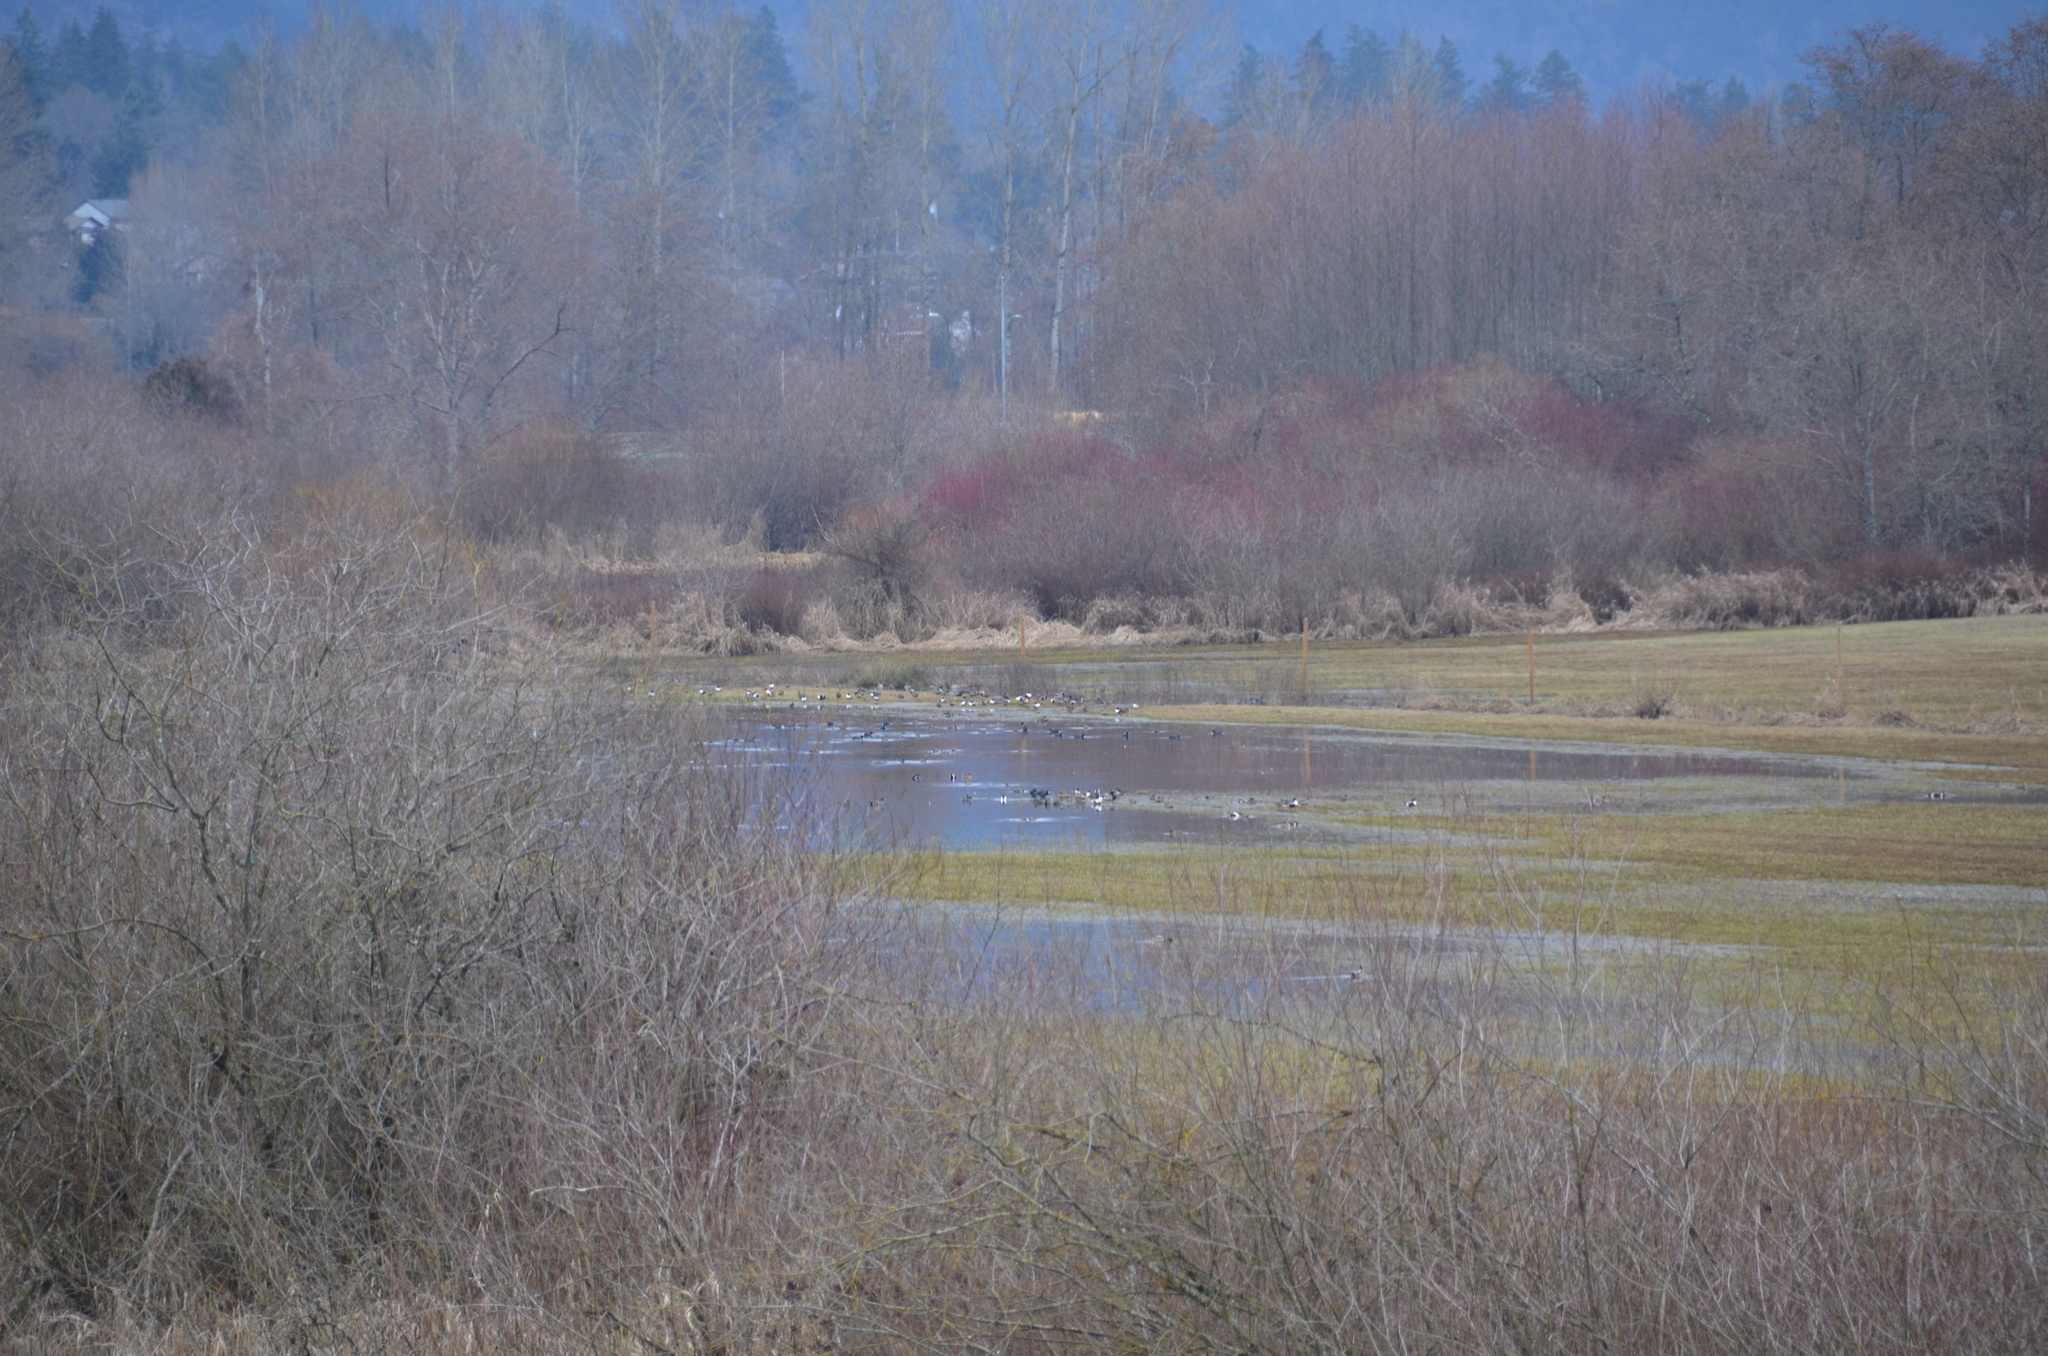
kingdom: Animalia
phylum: Chordata
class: Aves
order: Anseriformes
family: Anatidae
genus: Anas
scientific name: Anas platyrhynchos
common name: Mallard
